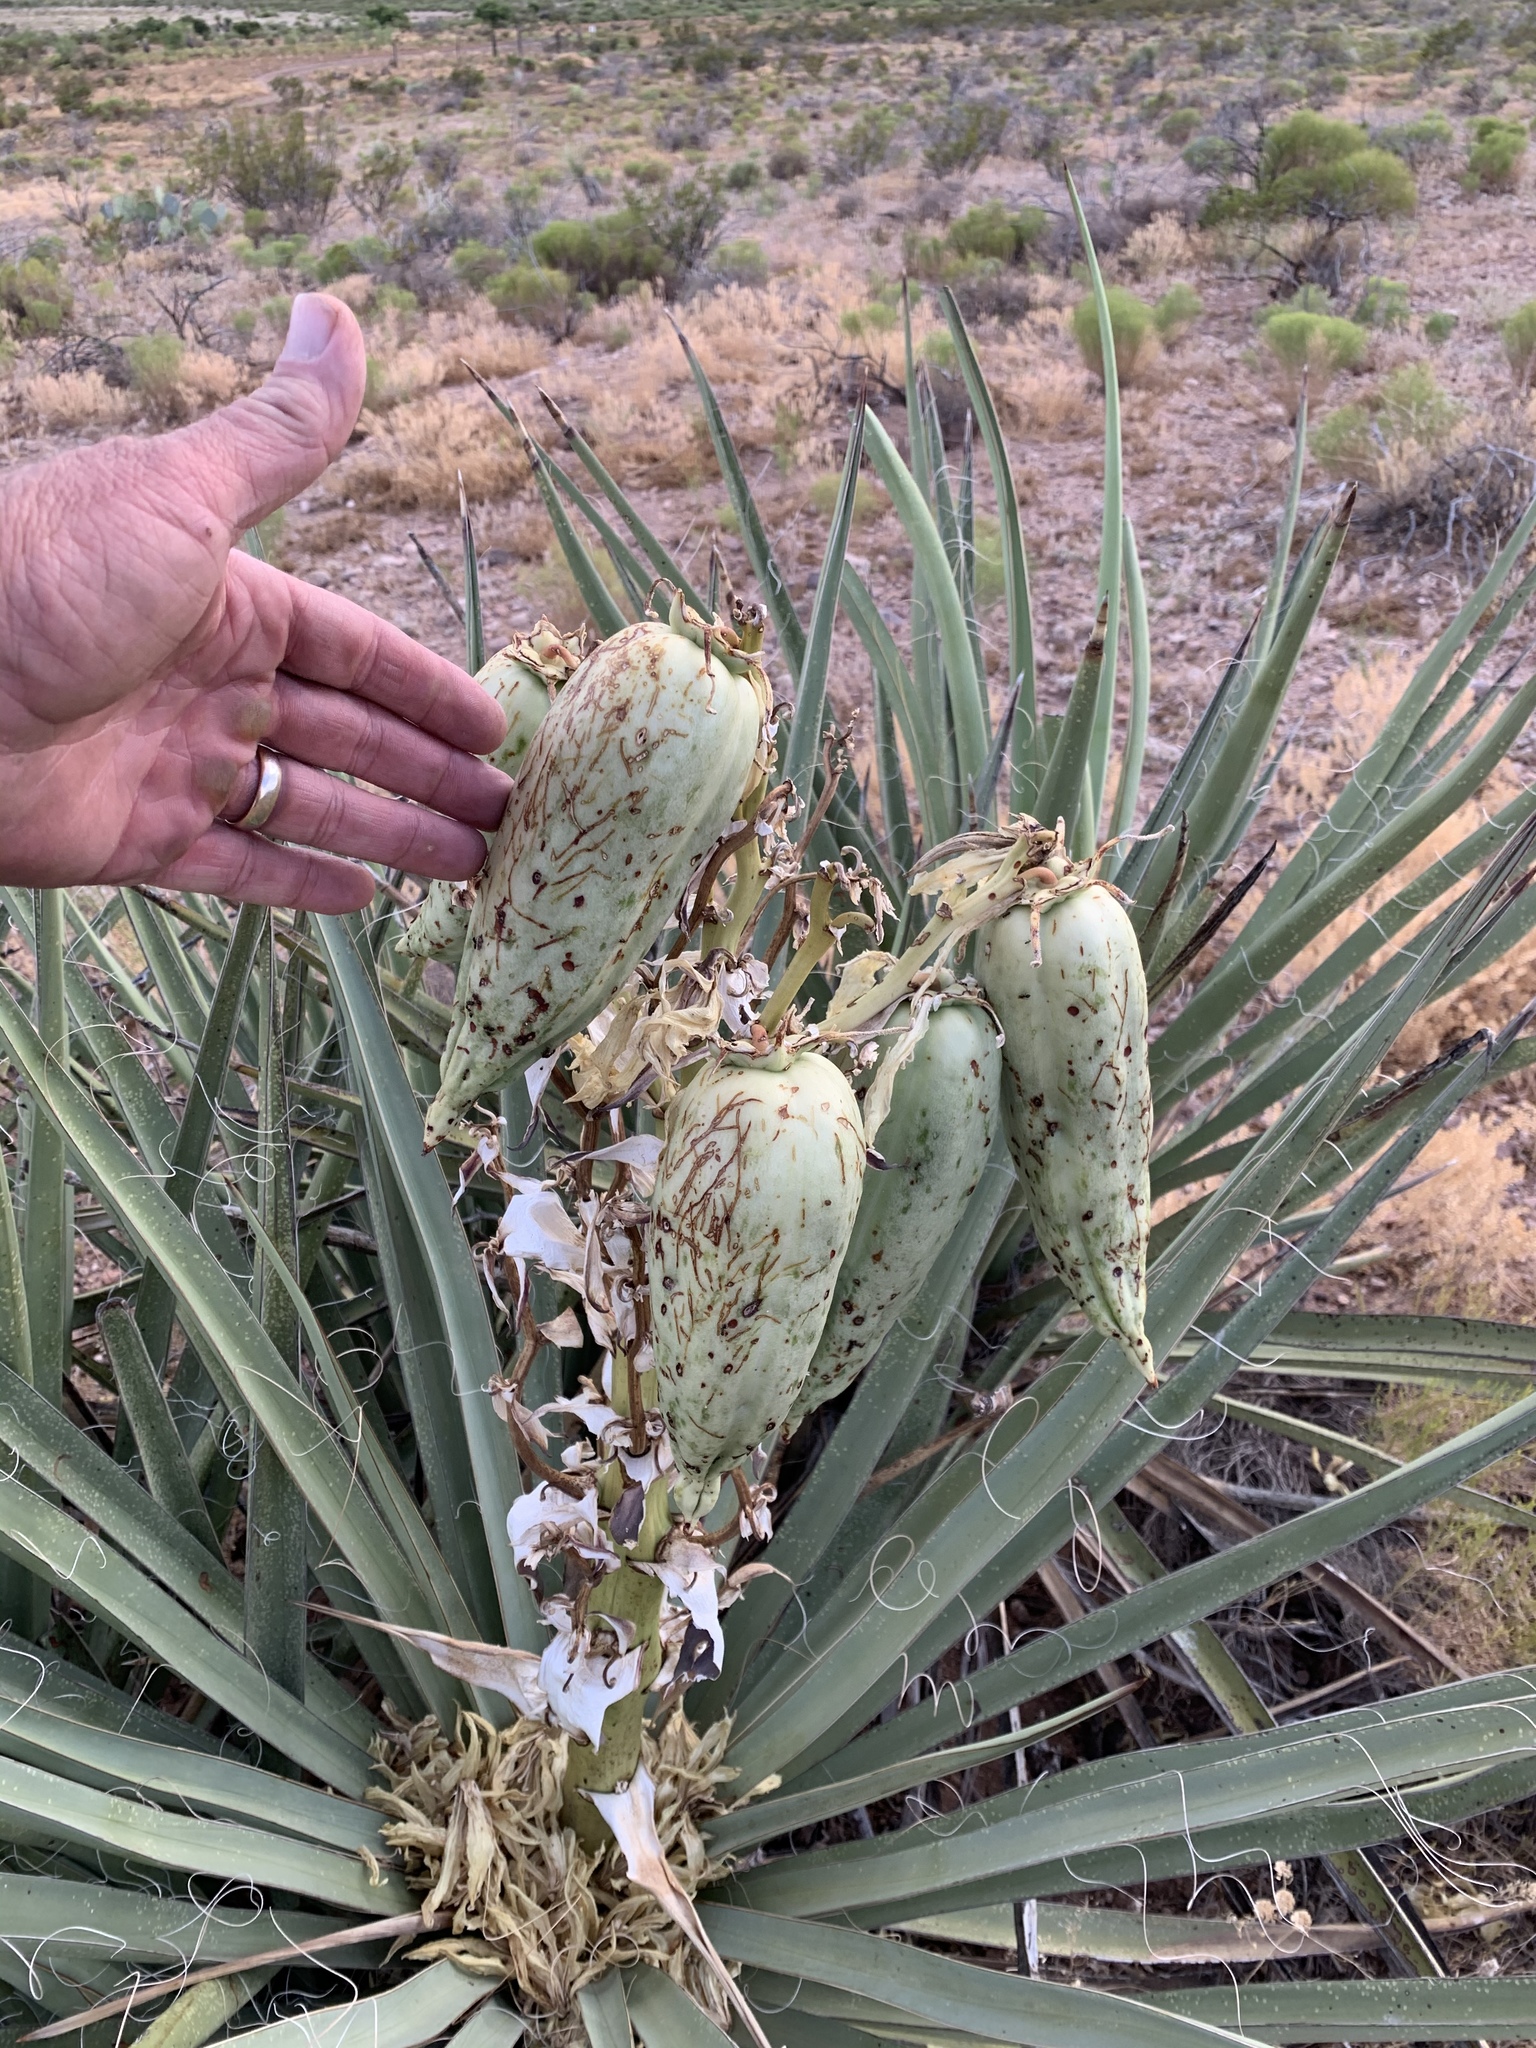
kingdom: Plantae
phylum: Tracheophyta
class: Liliopsida
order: Asparagales
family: Asparagaceae
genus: Yucca
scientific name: Yucca baccata
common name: Banana yucca
